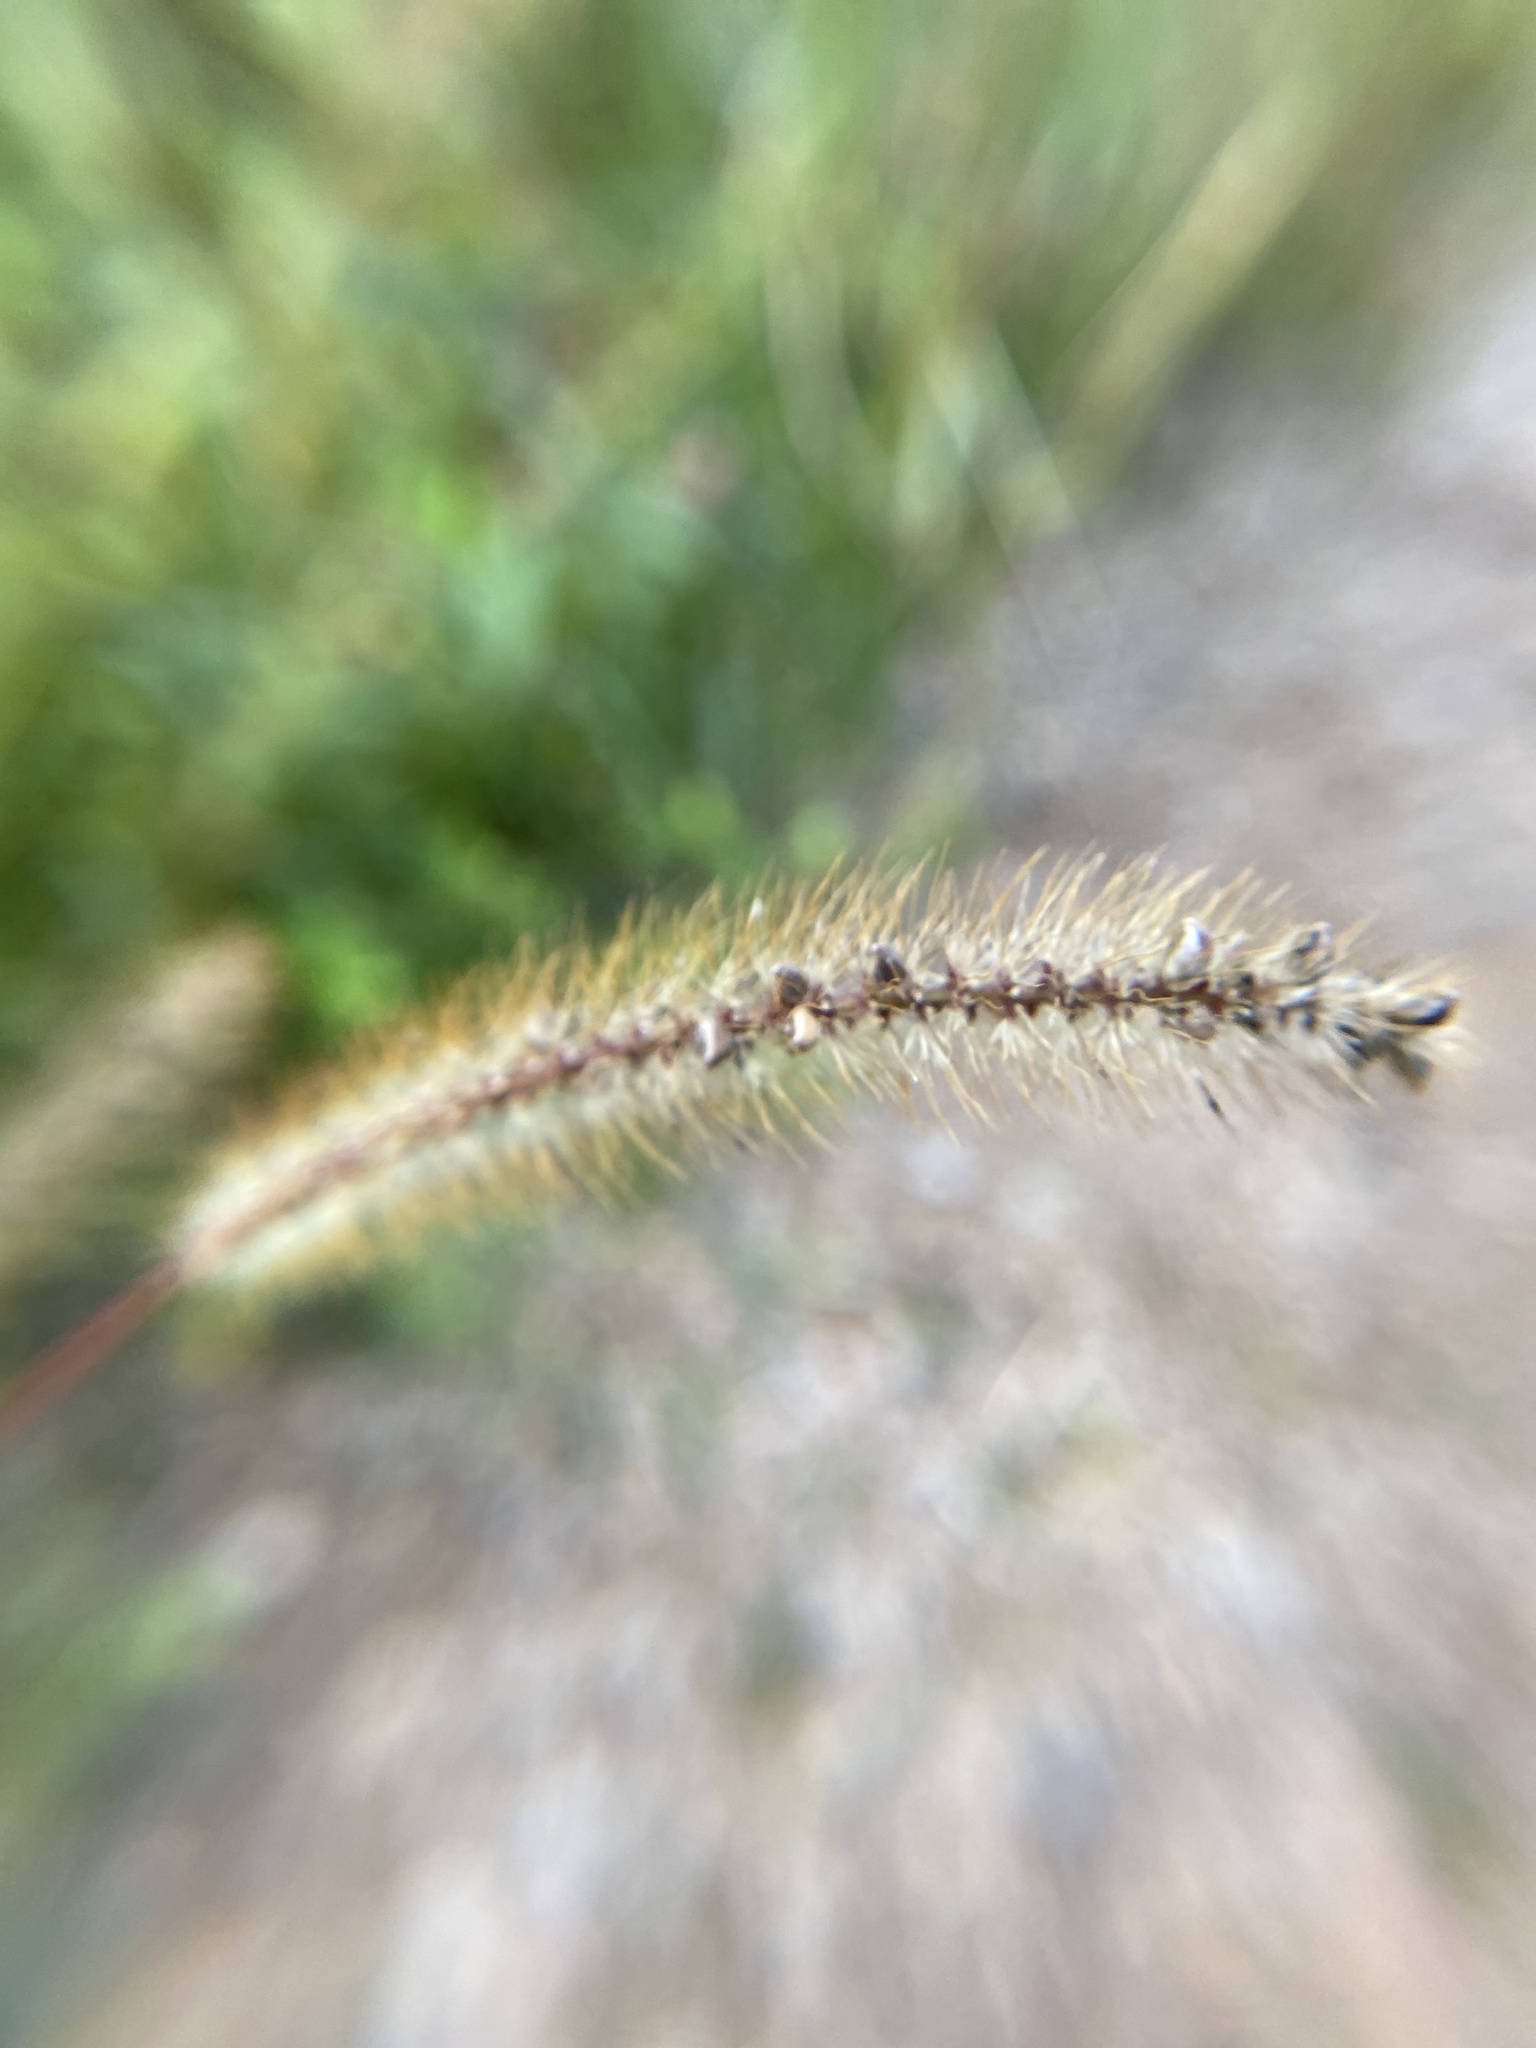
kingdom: Plantae
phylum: Tracheophyta
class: Liliopsida
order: Poales
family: Poaceae
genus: Setaria
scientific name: Setaria pumila
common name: Yellow bristle-grass
